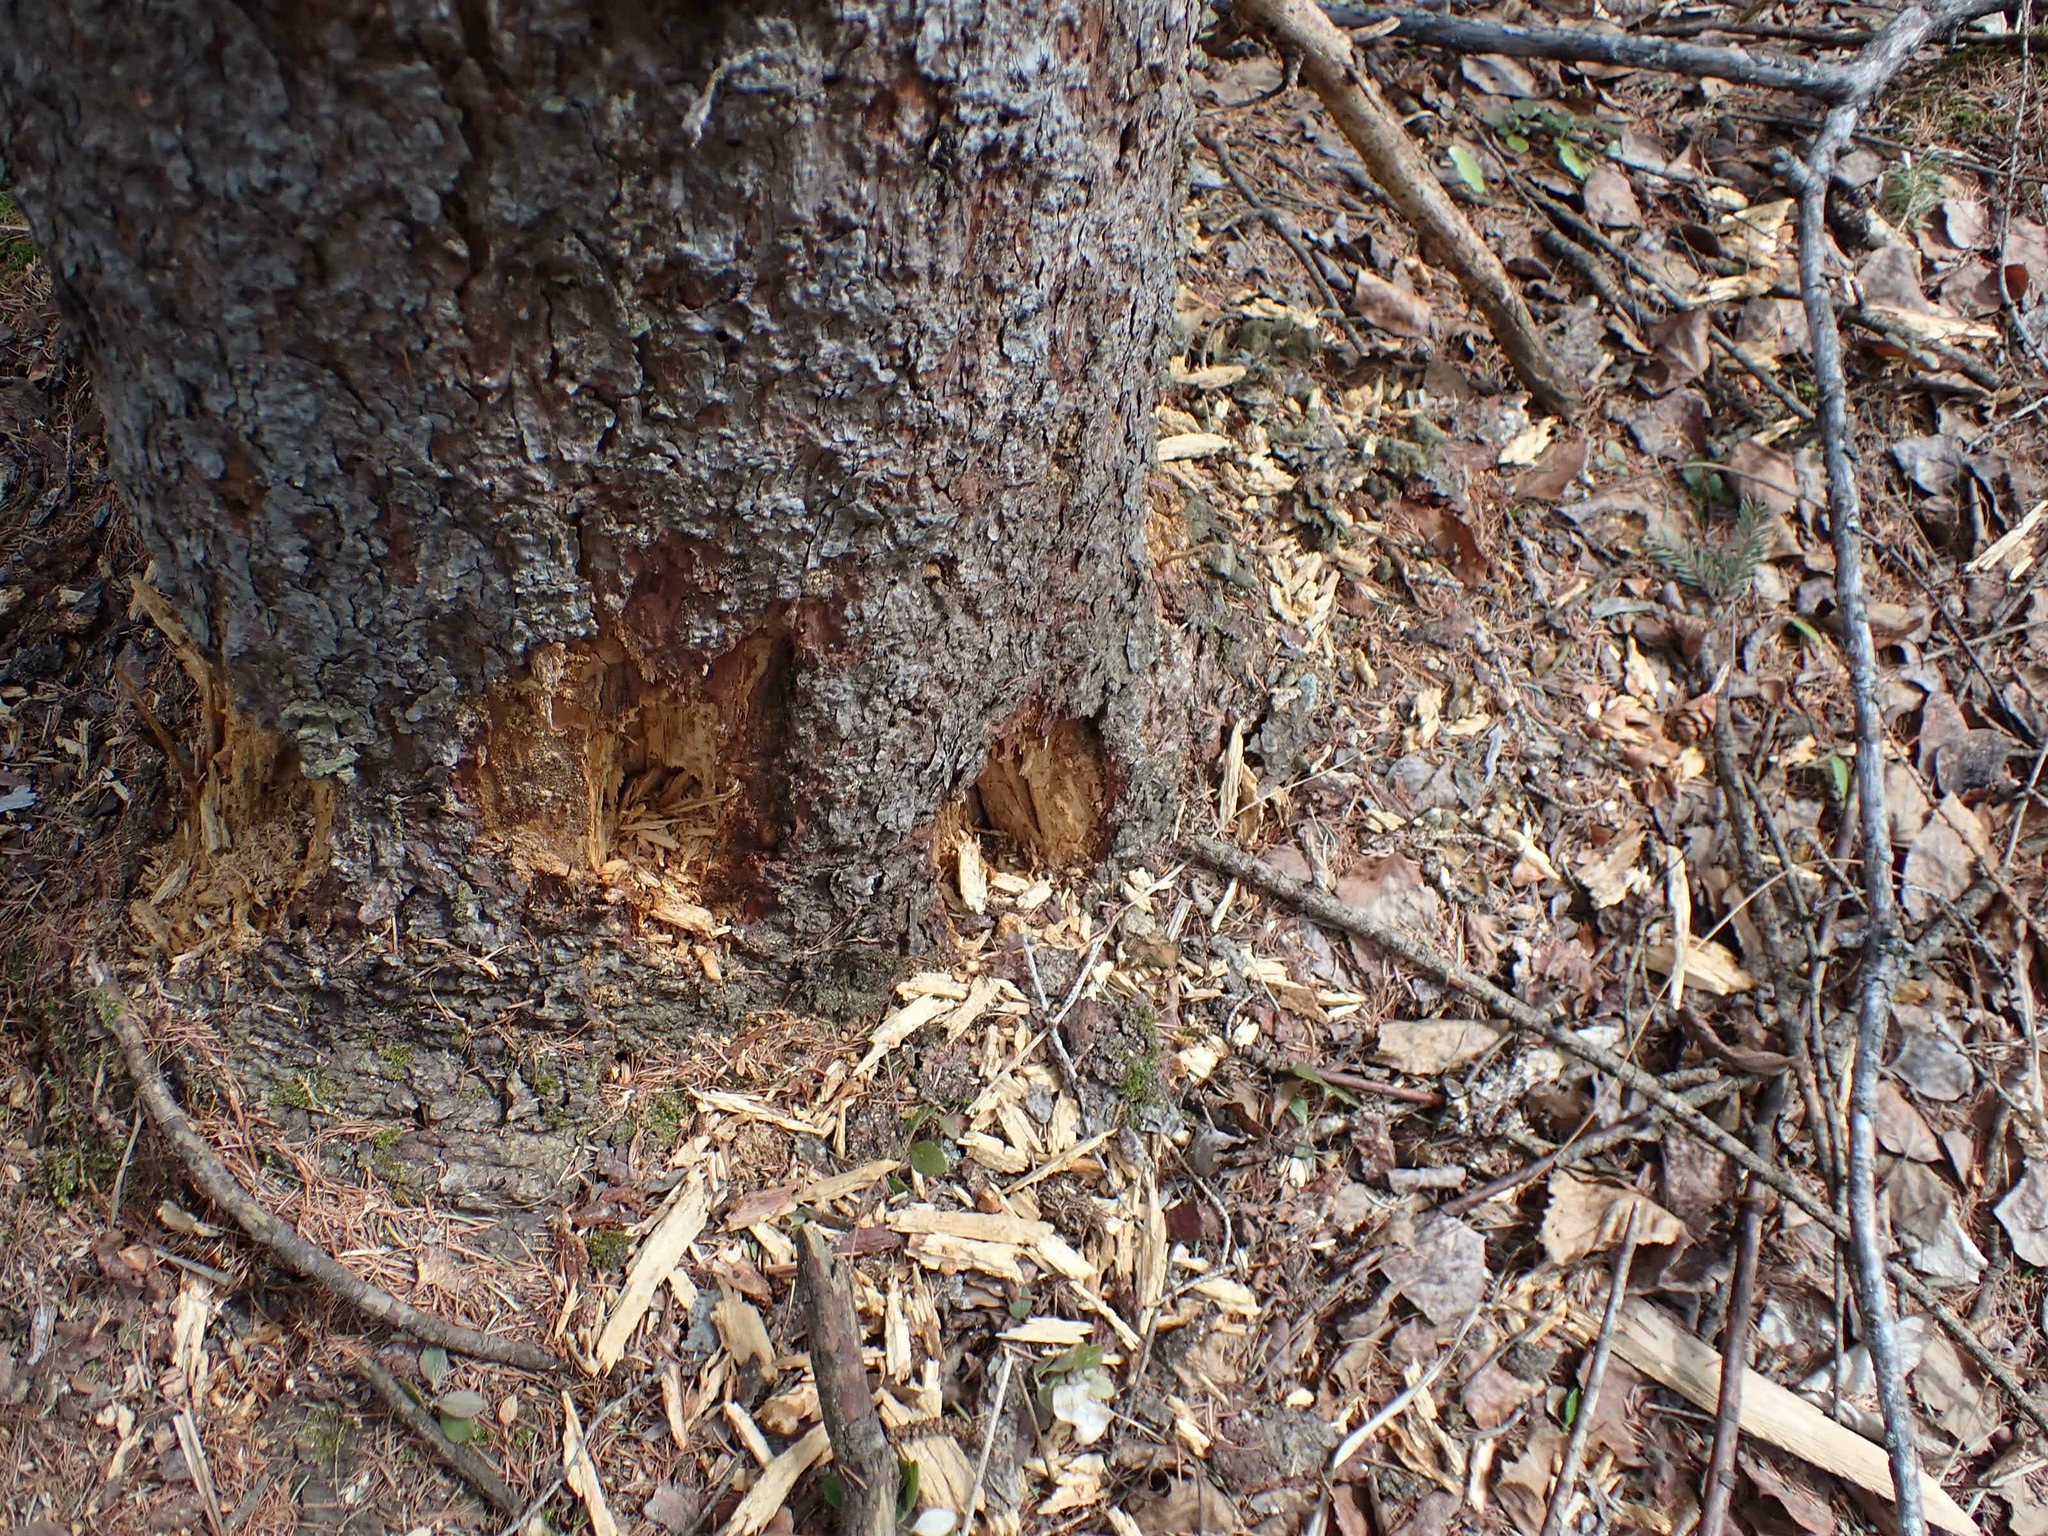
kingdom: Animalia
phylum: Chordata
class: Aves
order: Piciformes
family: Picidae
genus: Dryocopus
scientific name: Dryocopus pileatus
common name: Pileated woodpecker
